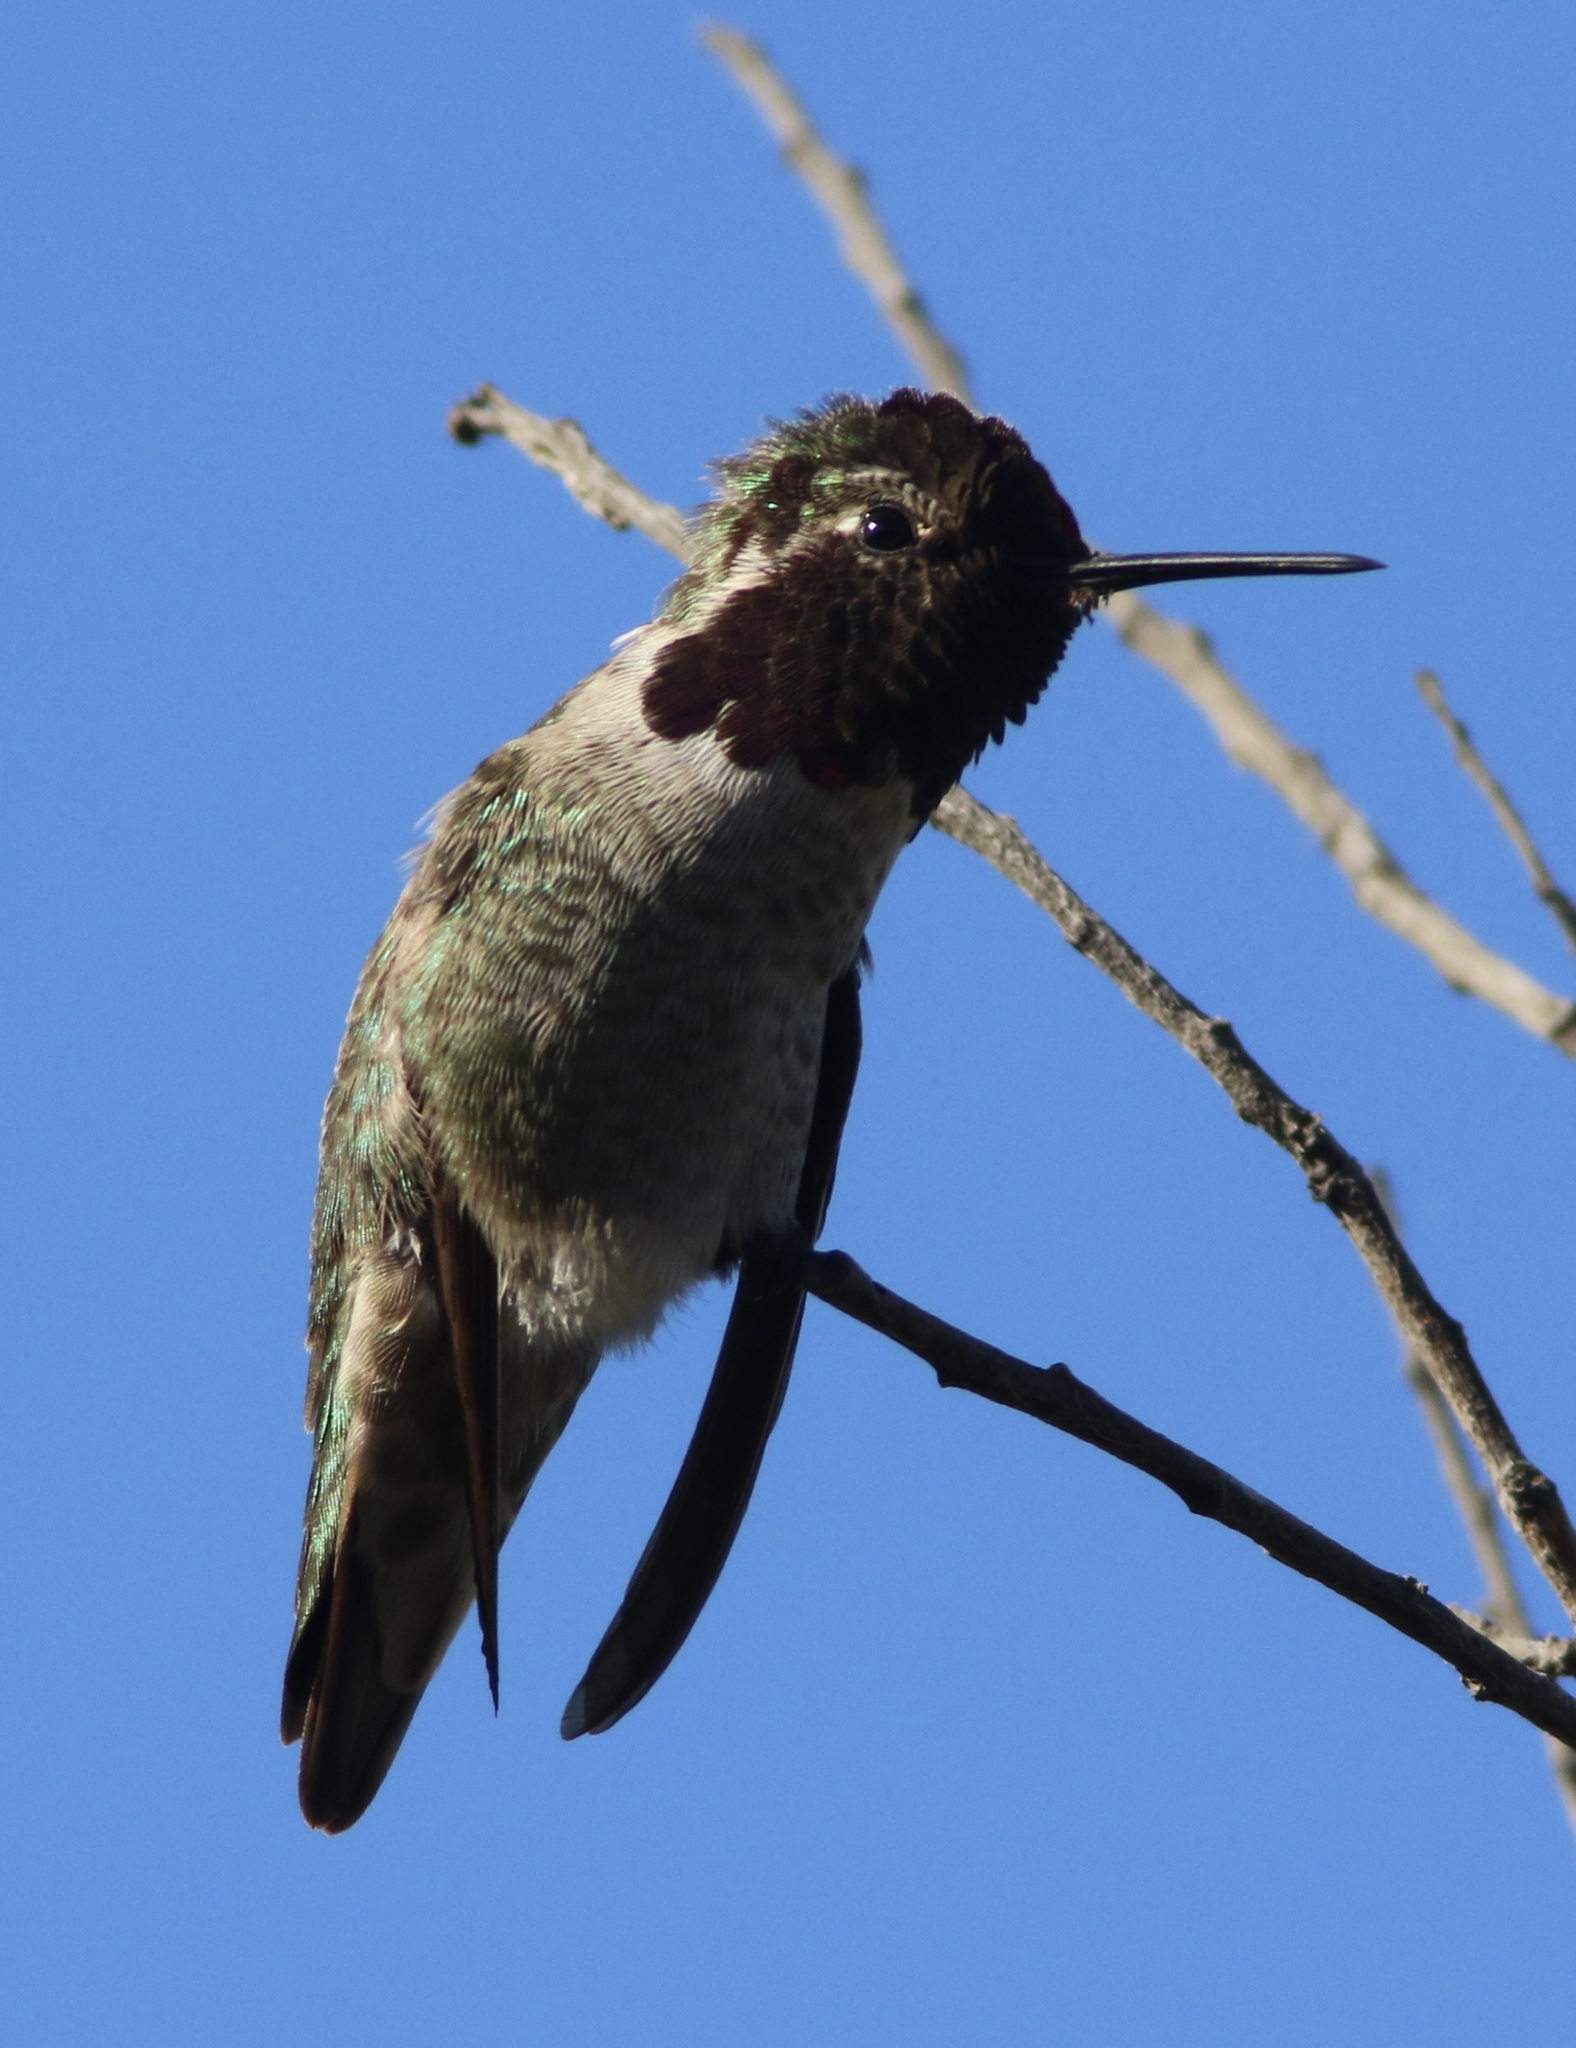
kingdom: Animalia
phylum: Chordata
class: Aves
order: Apodiformes
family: Trochilidae
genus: Calypte
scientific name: Calypte anna
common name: Anna's hummingbird
